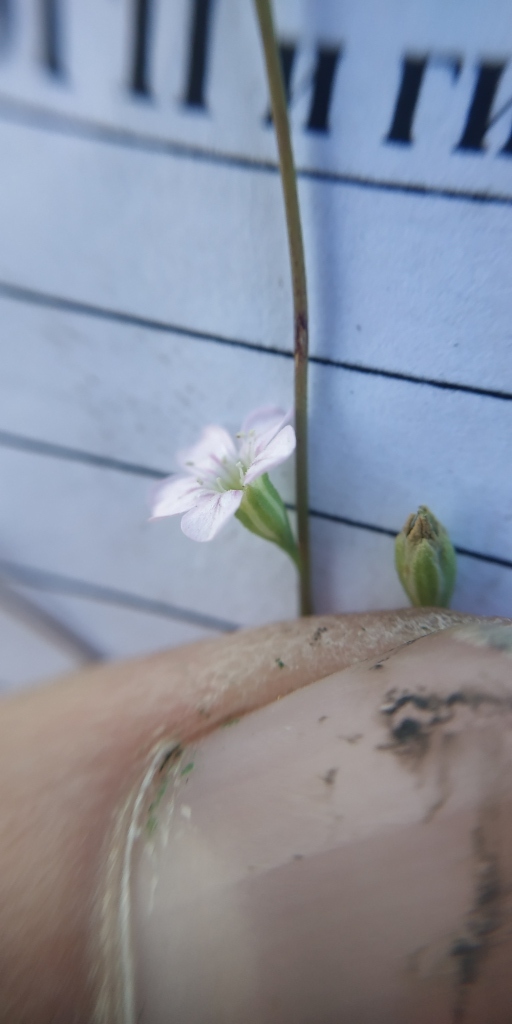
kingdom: Plantae
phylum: Tracheophyta
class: Magnoliopsida
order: Caryophyllales
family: Caryophyllaceae
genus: Psammophiliella
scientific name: Psammophiliella muralis
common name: Cushion baby's-breath
